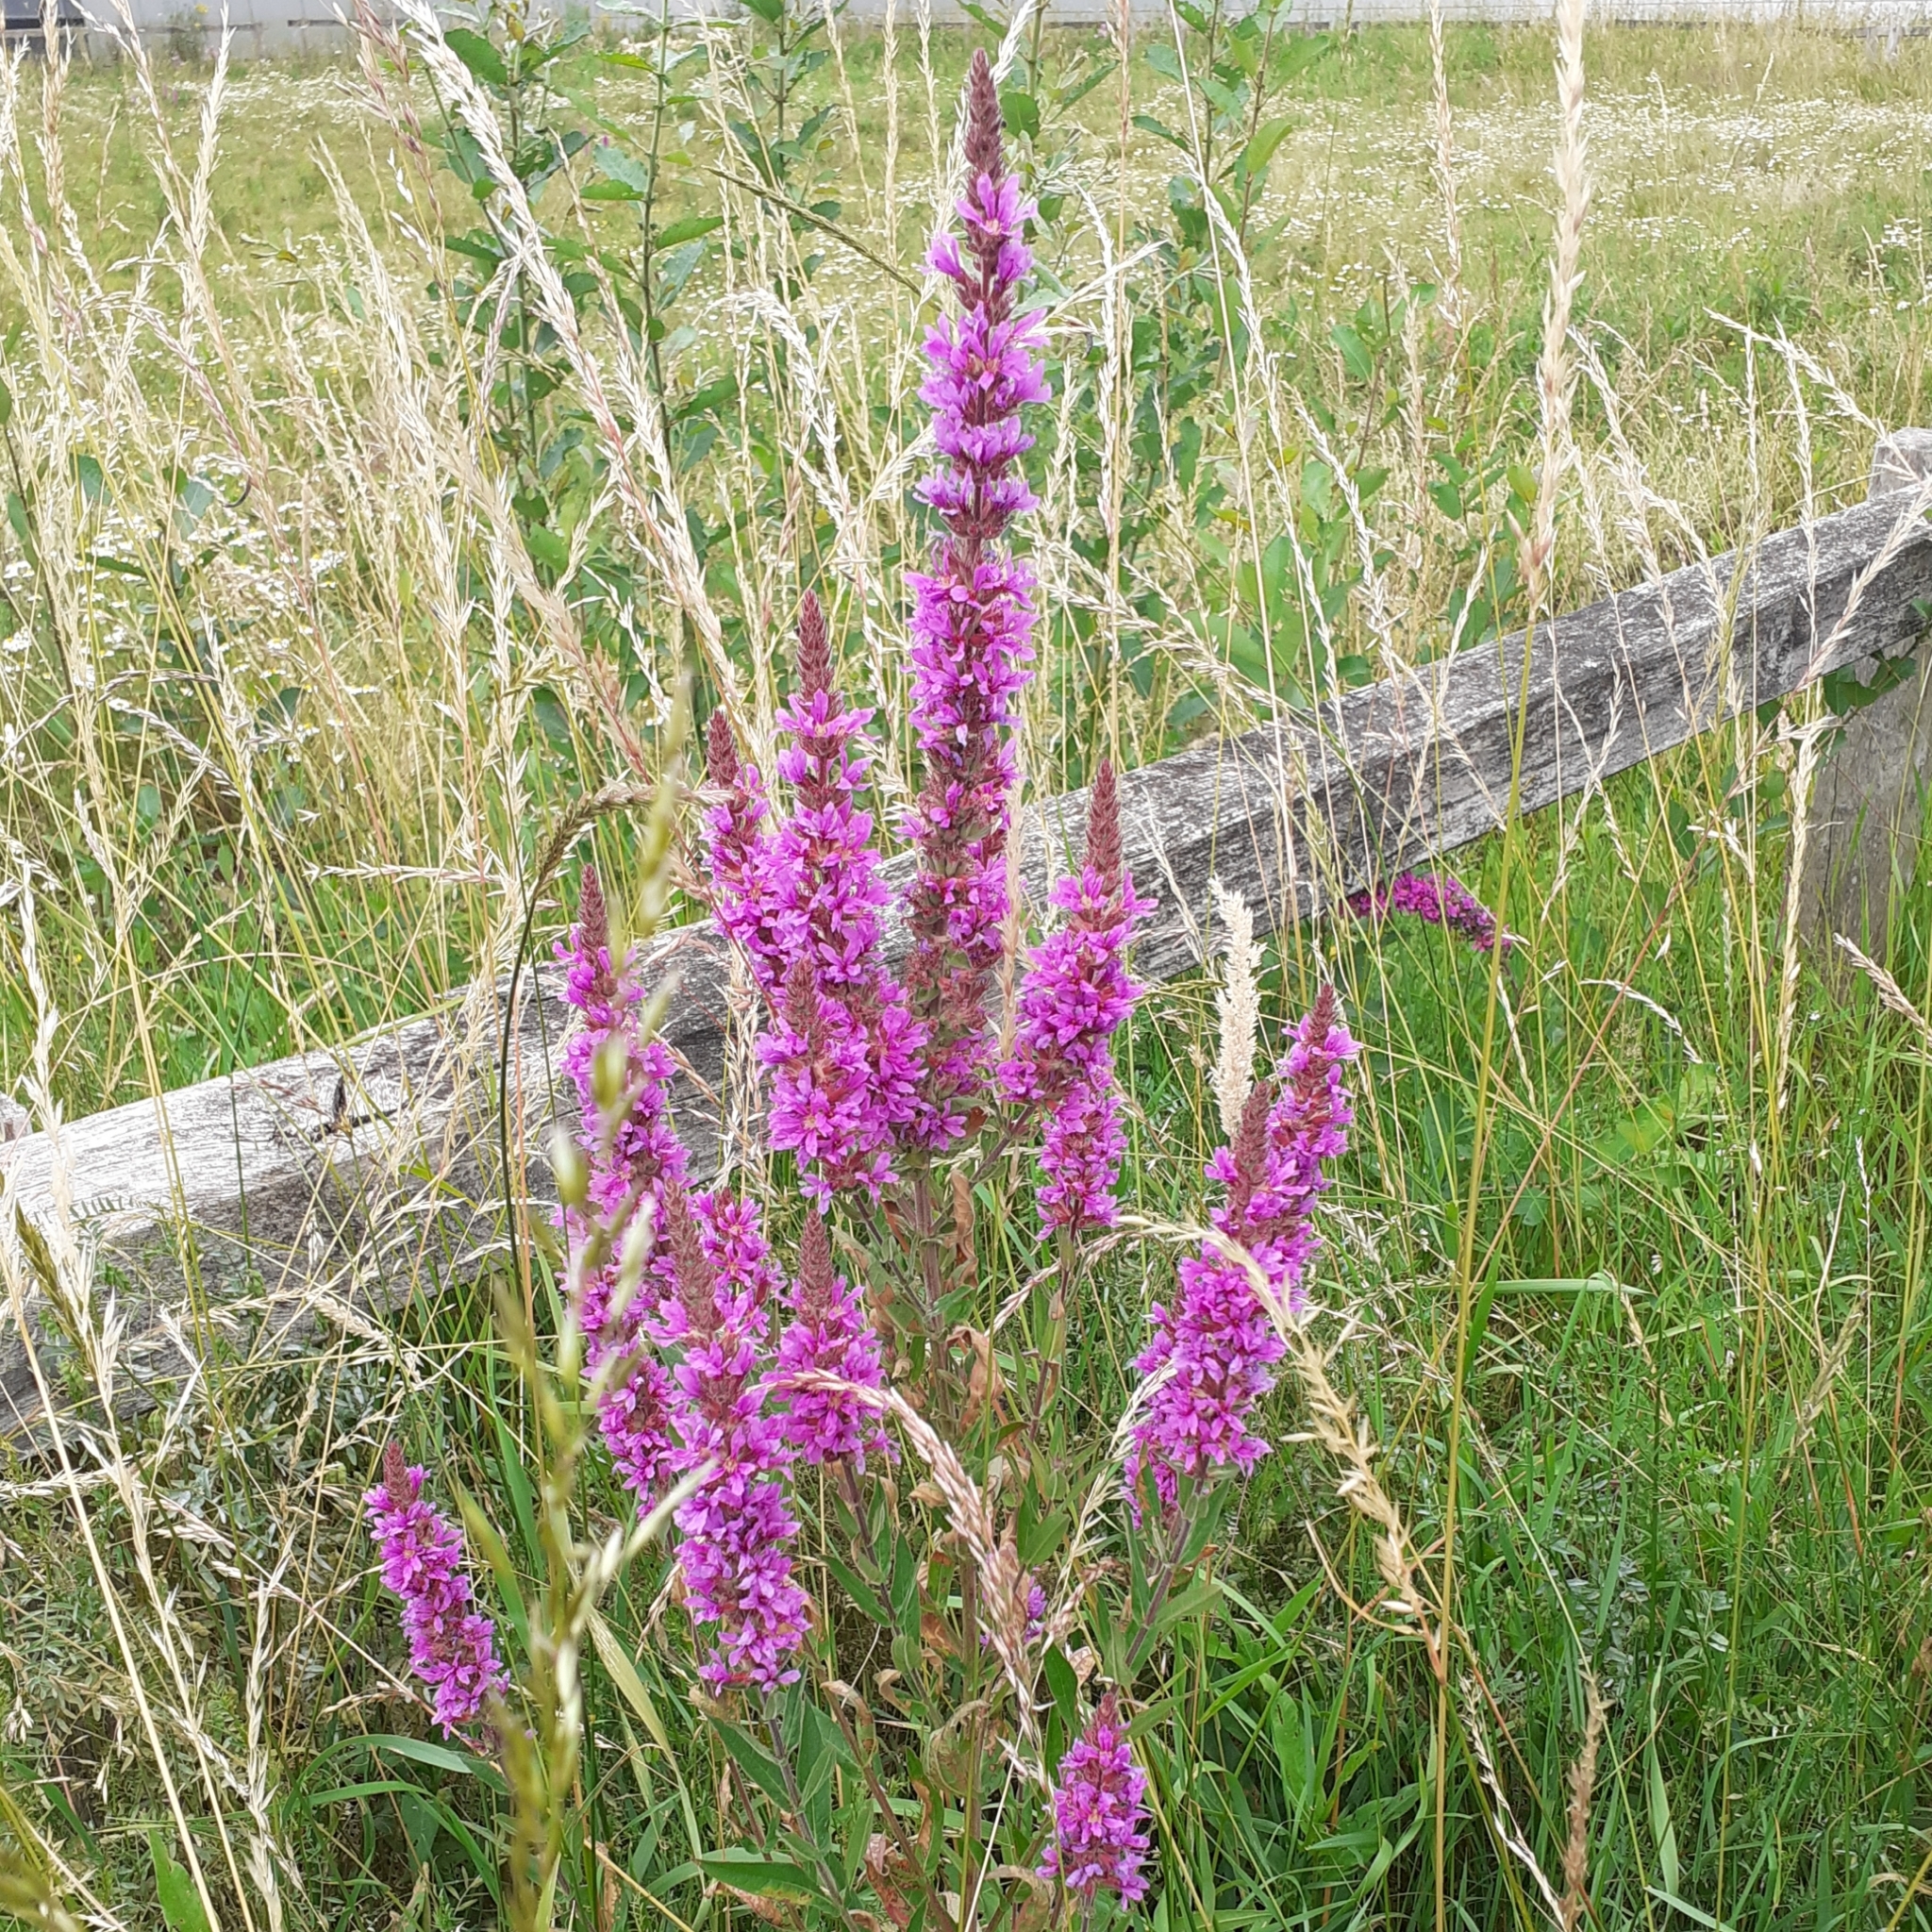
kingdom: Plantae
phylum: Tracheophyta
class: Magnoliopsida
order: Myrtales
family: Lythraceae
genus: Lythrum
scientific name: Lythrum salicaria
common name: Purple loosestrife
